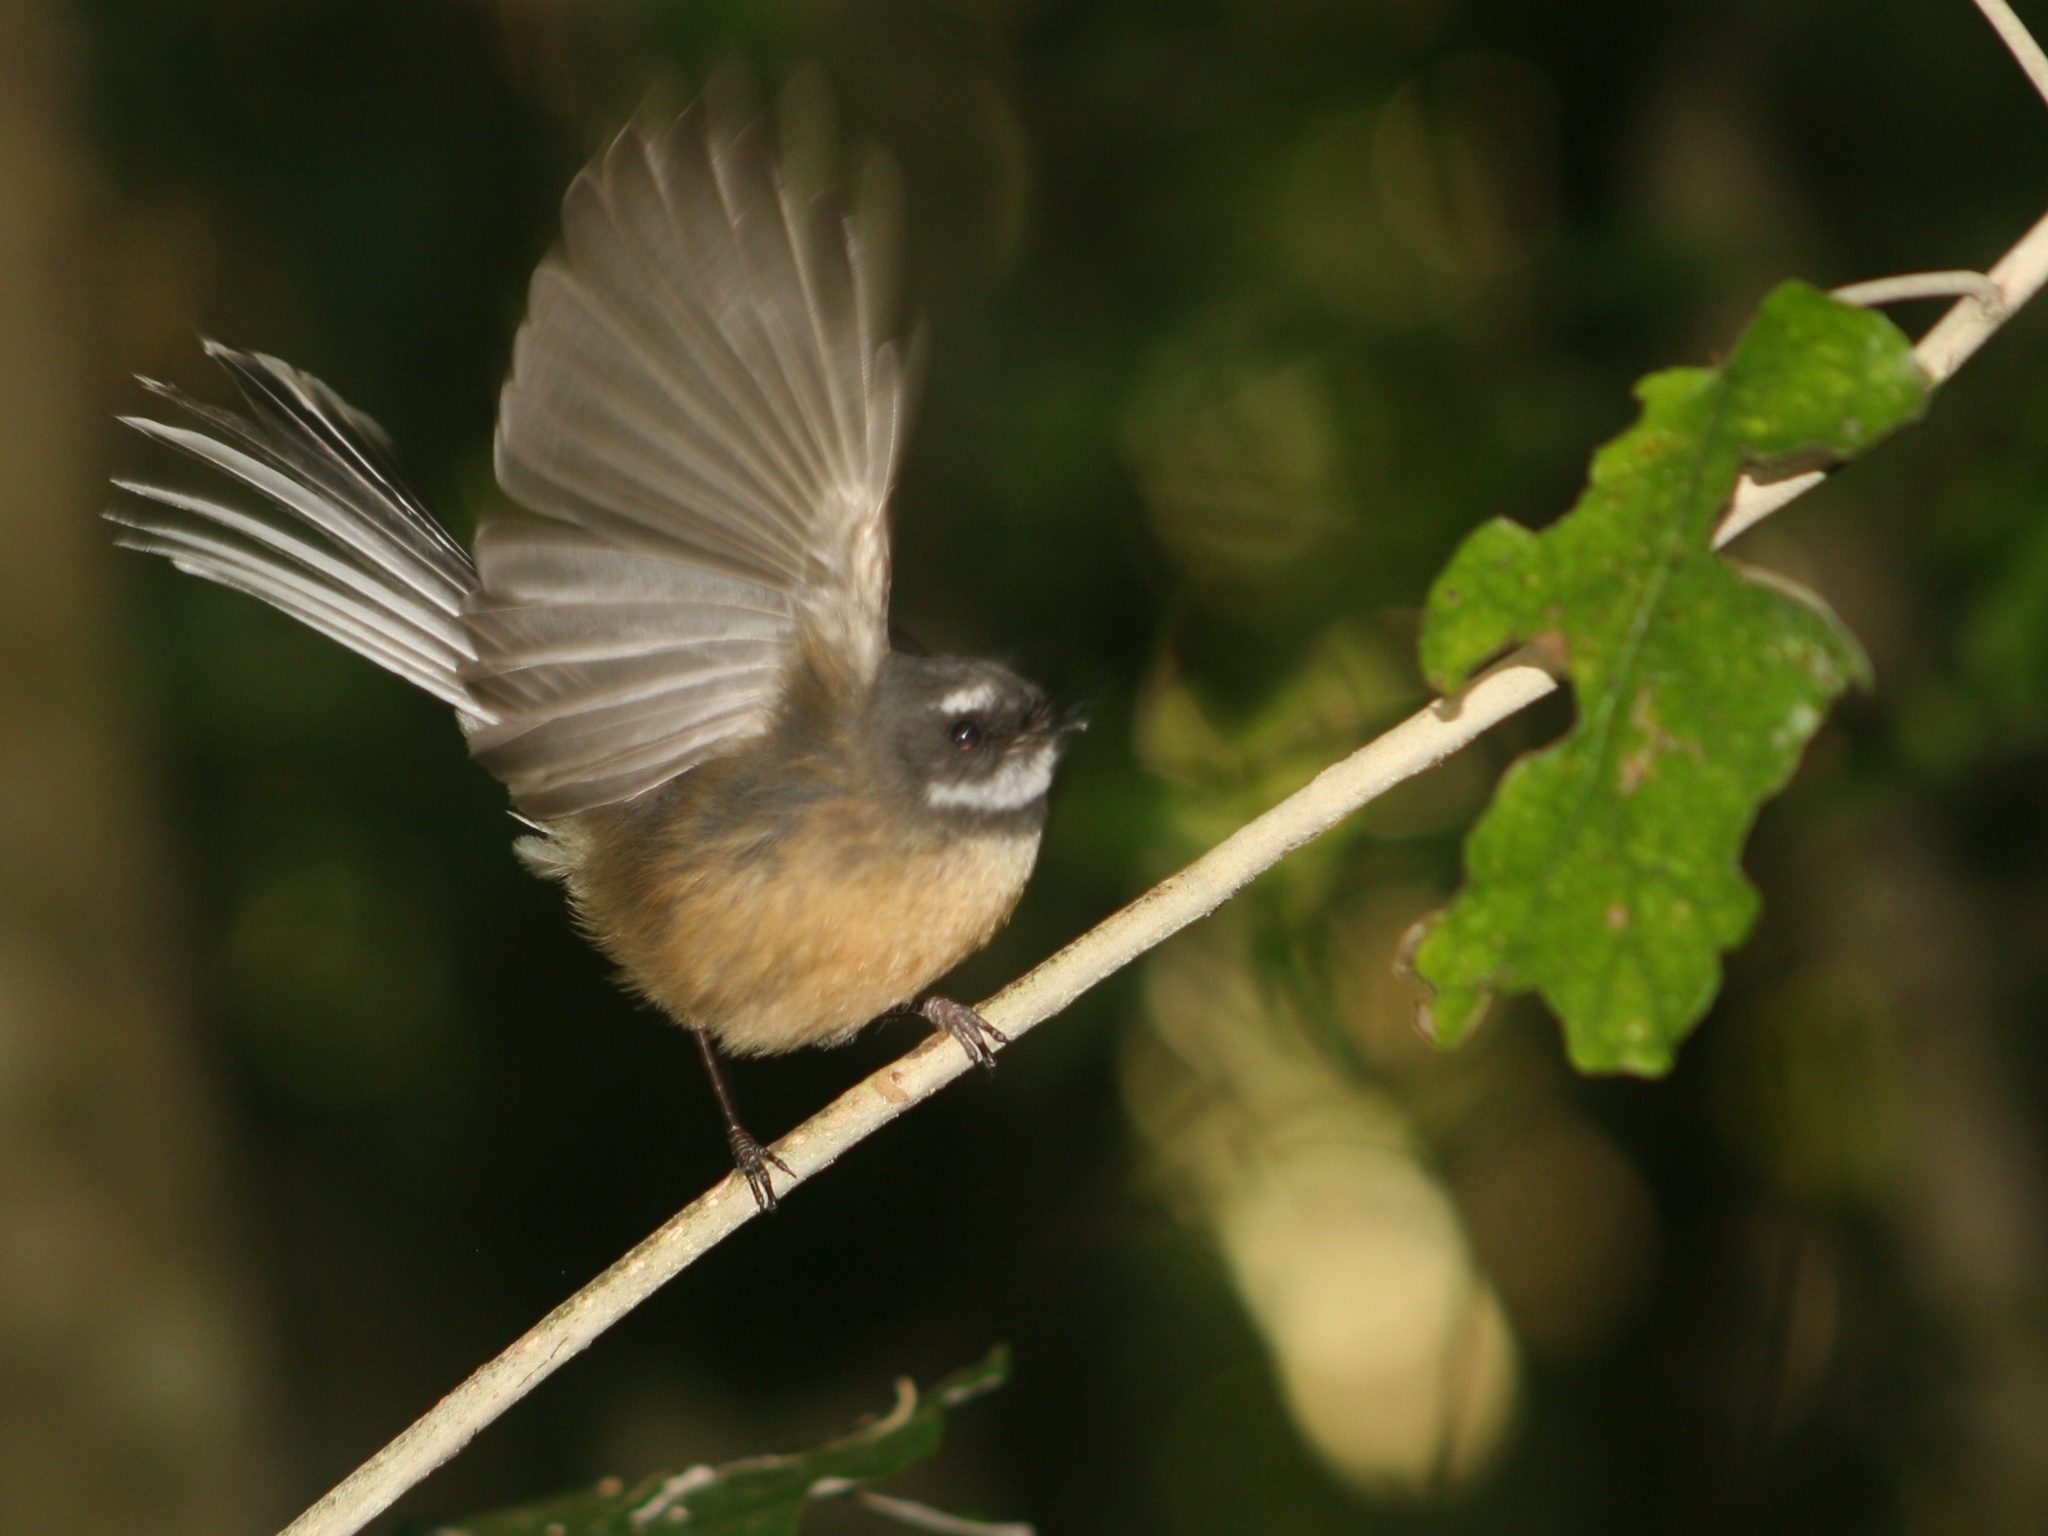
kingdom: Animalia
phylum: Chordata
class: Aves
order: Passeriformes
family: Rhipiduridae
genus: Rhipidura
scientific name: Rhipidura fuliginosa
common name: New zealand fantail
